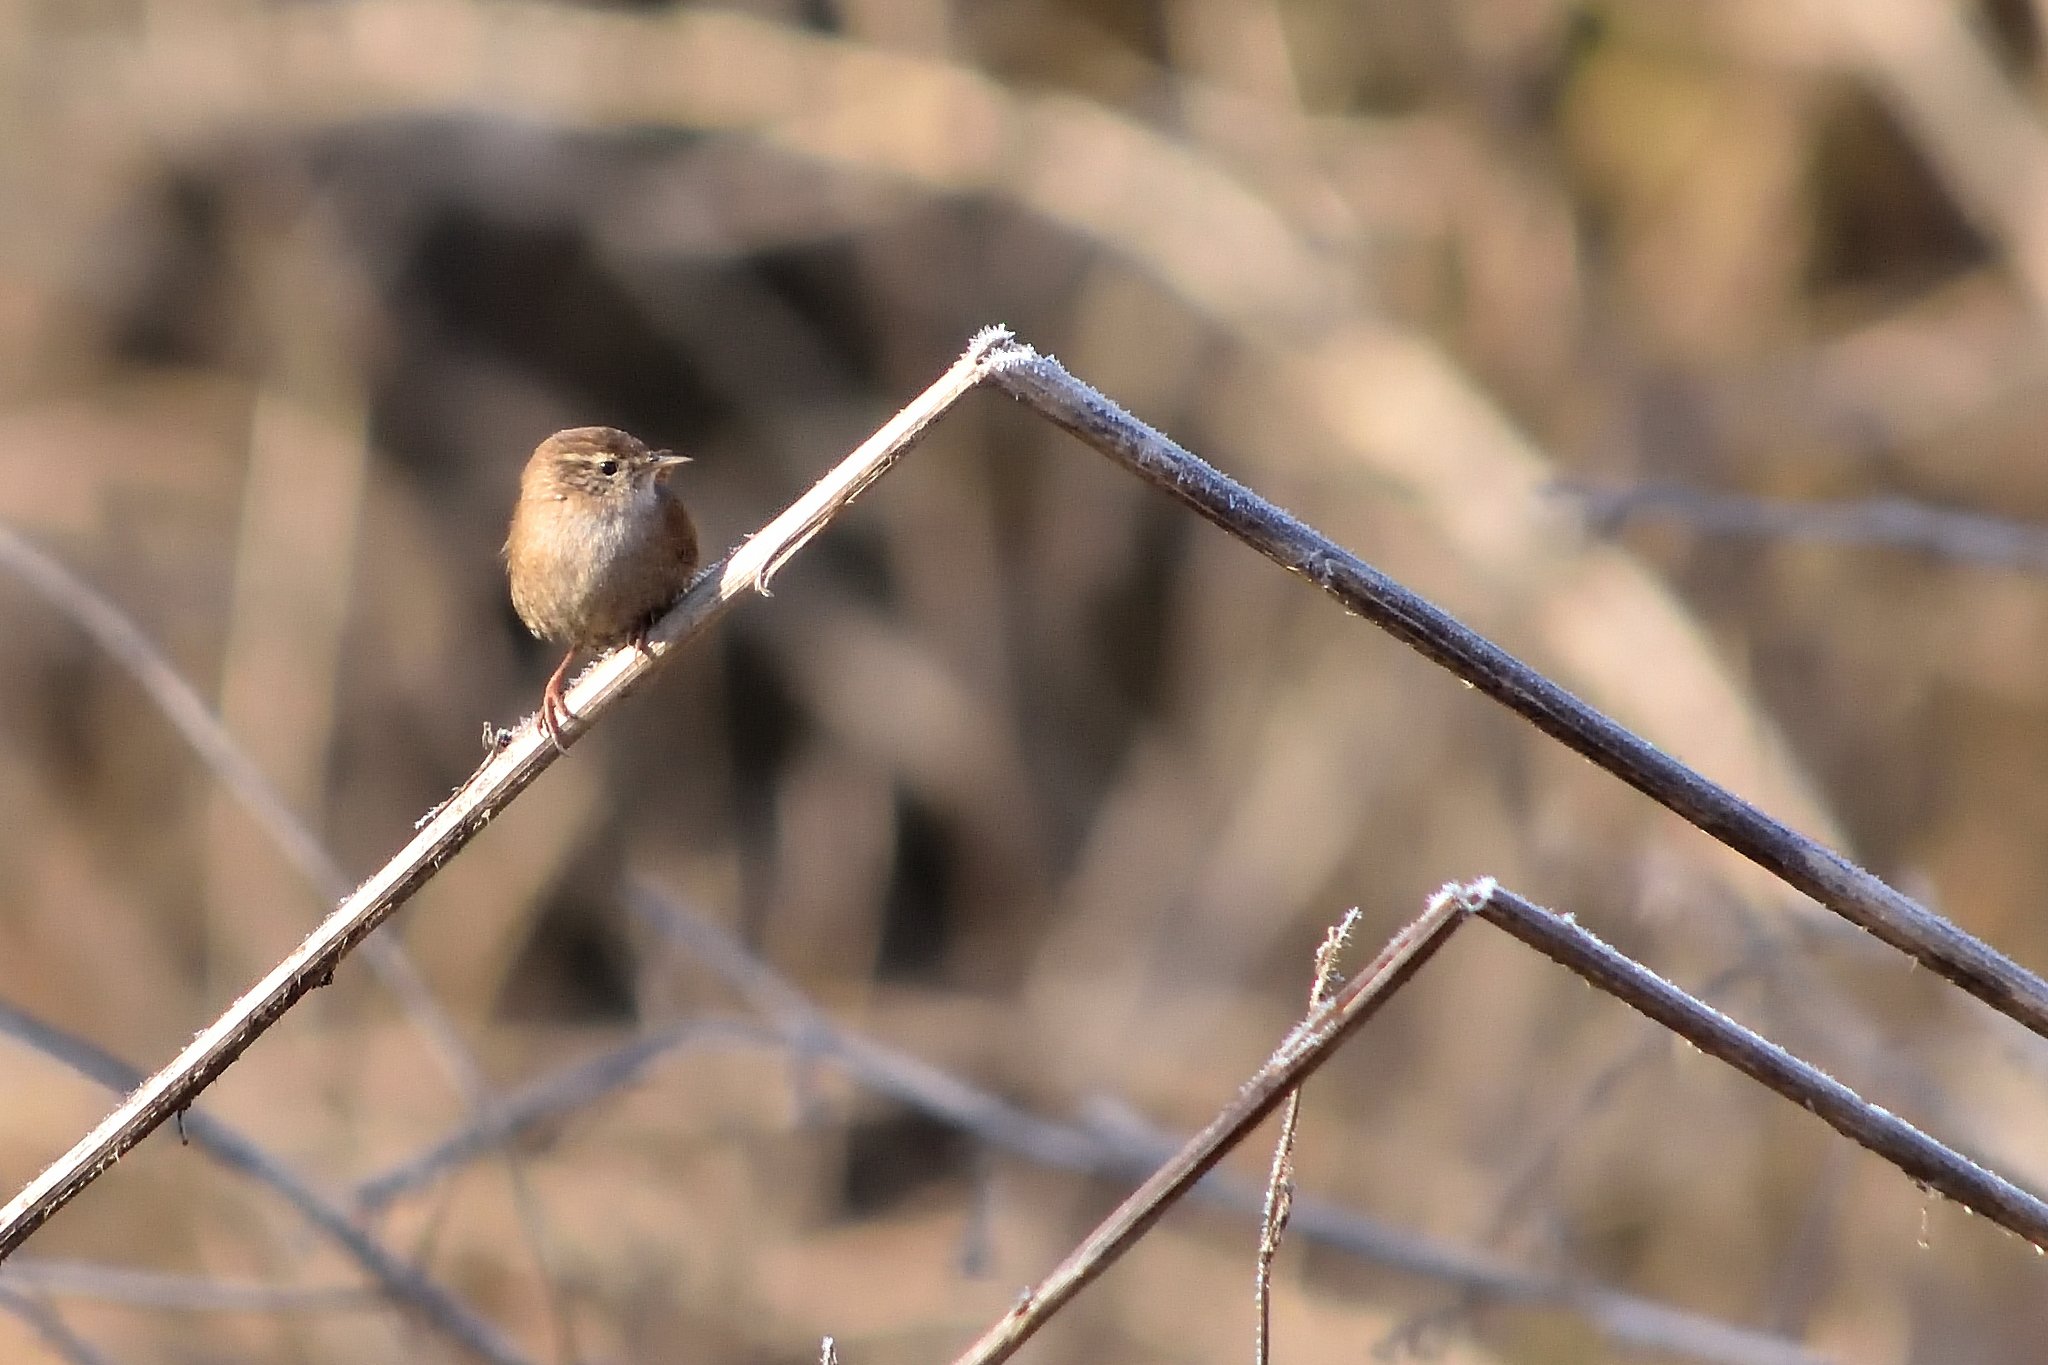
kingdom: Animalia
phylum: Chordata
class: Aves
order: Passeriformes
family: Troglodytidae
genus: Troglodytes
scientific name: Troglodytes troglodytes
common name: Eurasian wren
